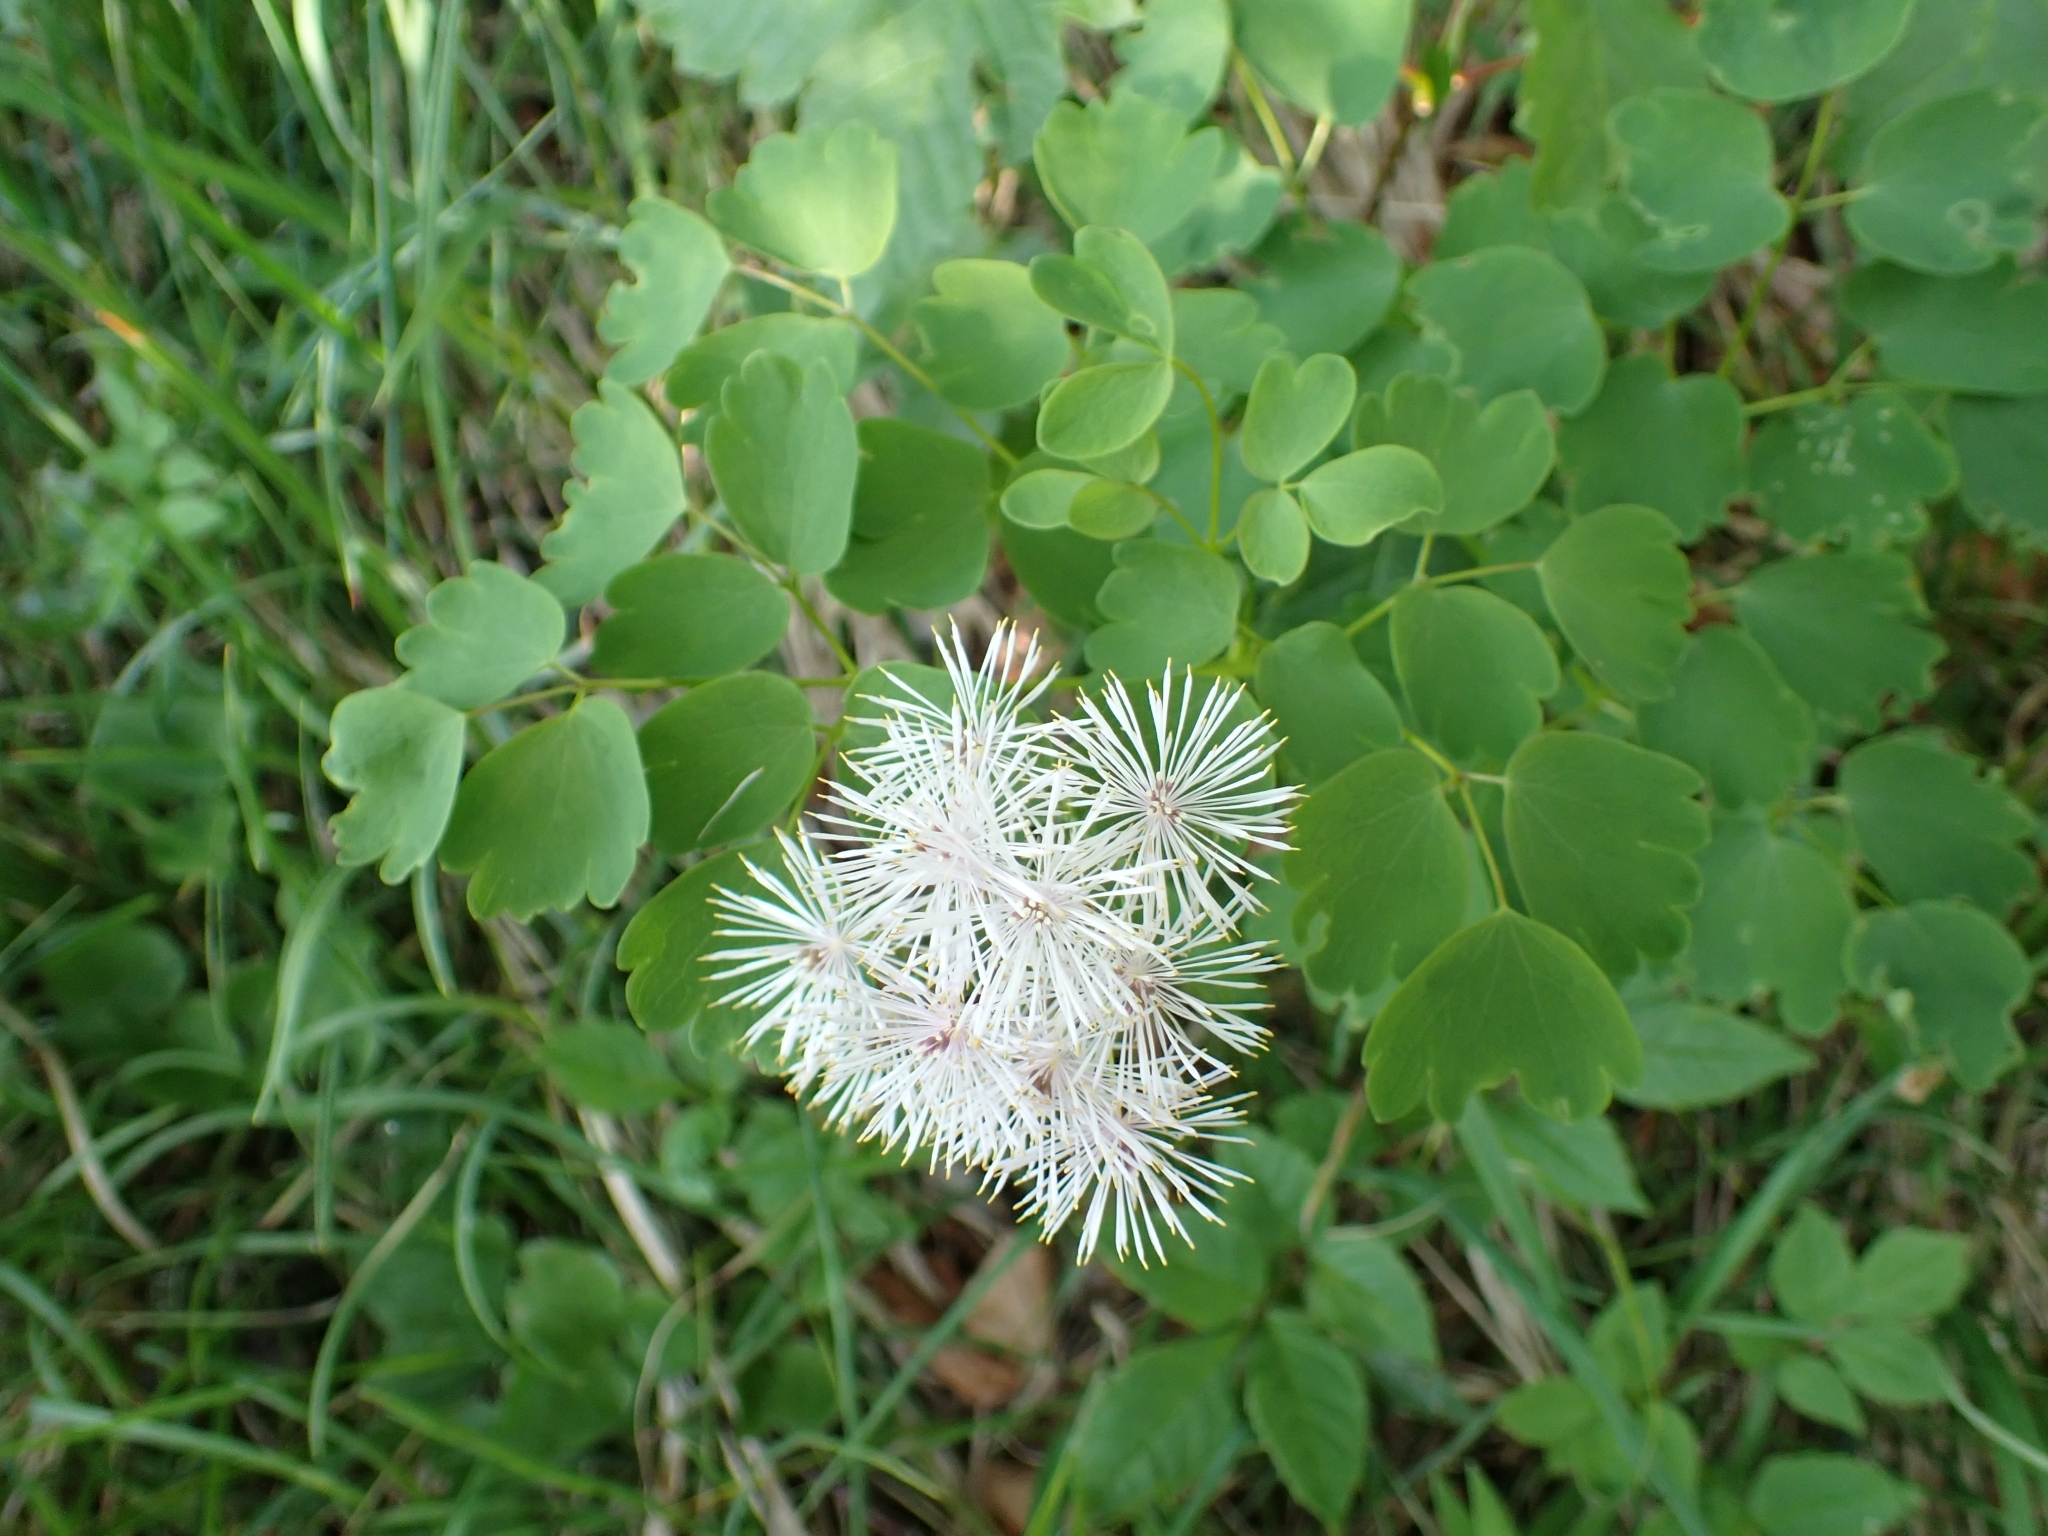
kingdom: Plantae
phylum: Tracheophyta
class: Magnoliopsida
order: Ranunculales
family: Ranunculaceae
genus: Thalictrum
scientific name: Thalictrum aquilegiifolium
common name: French meadow-rue
